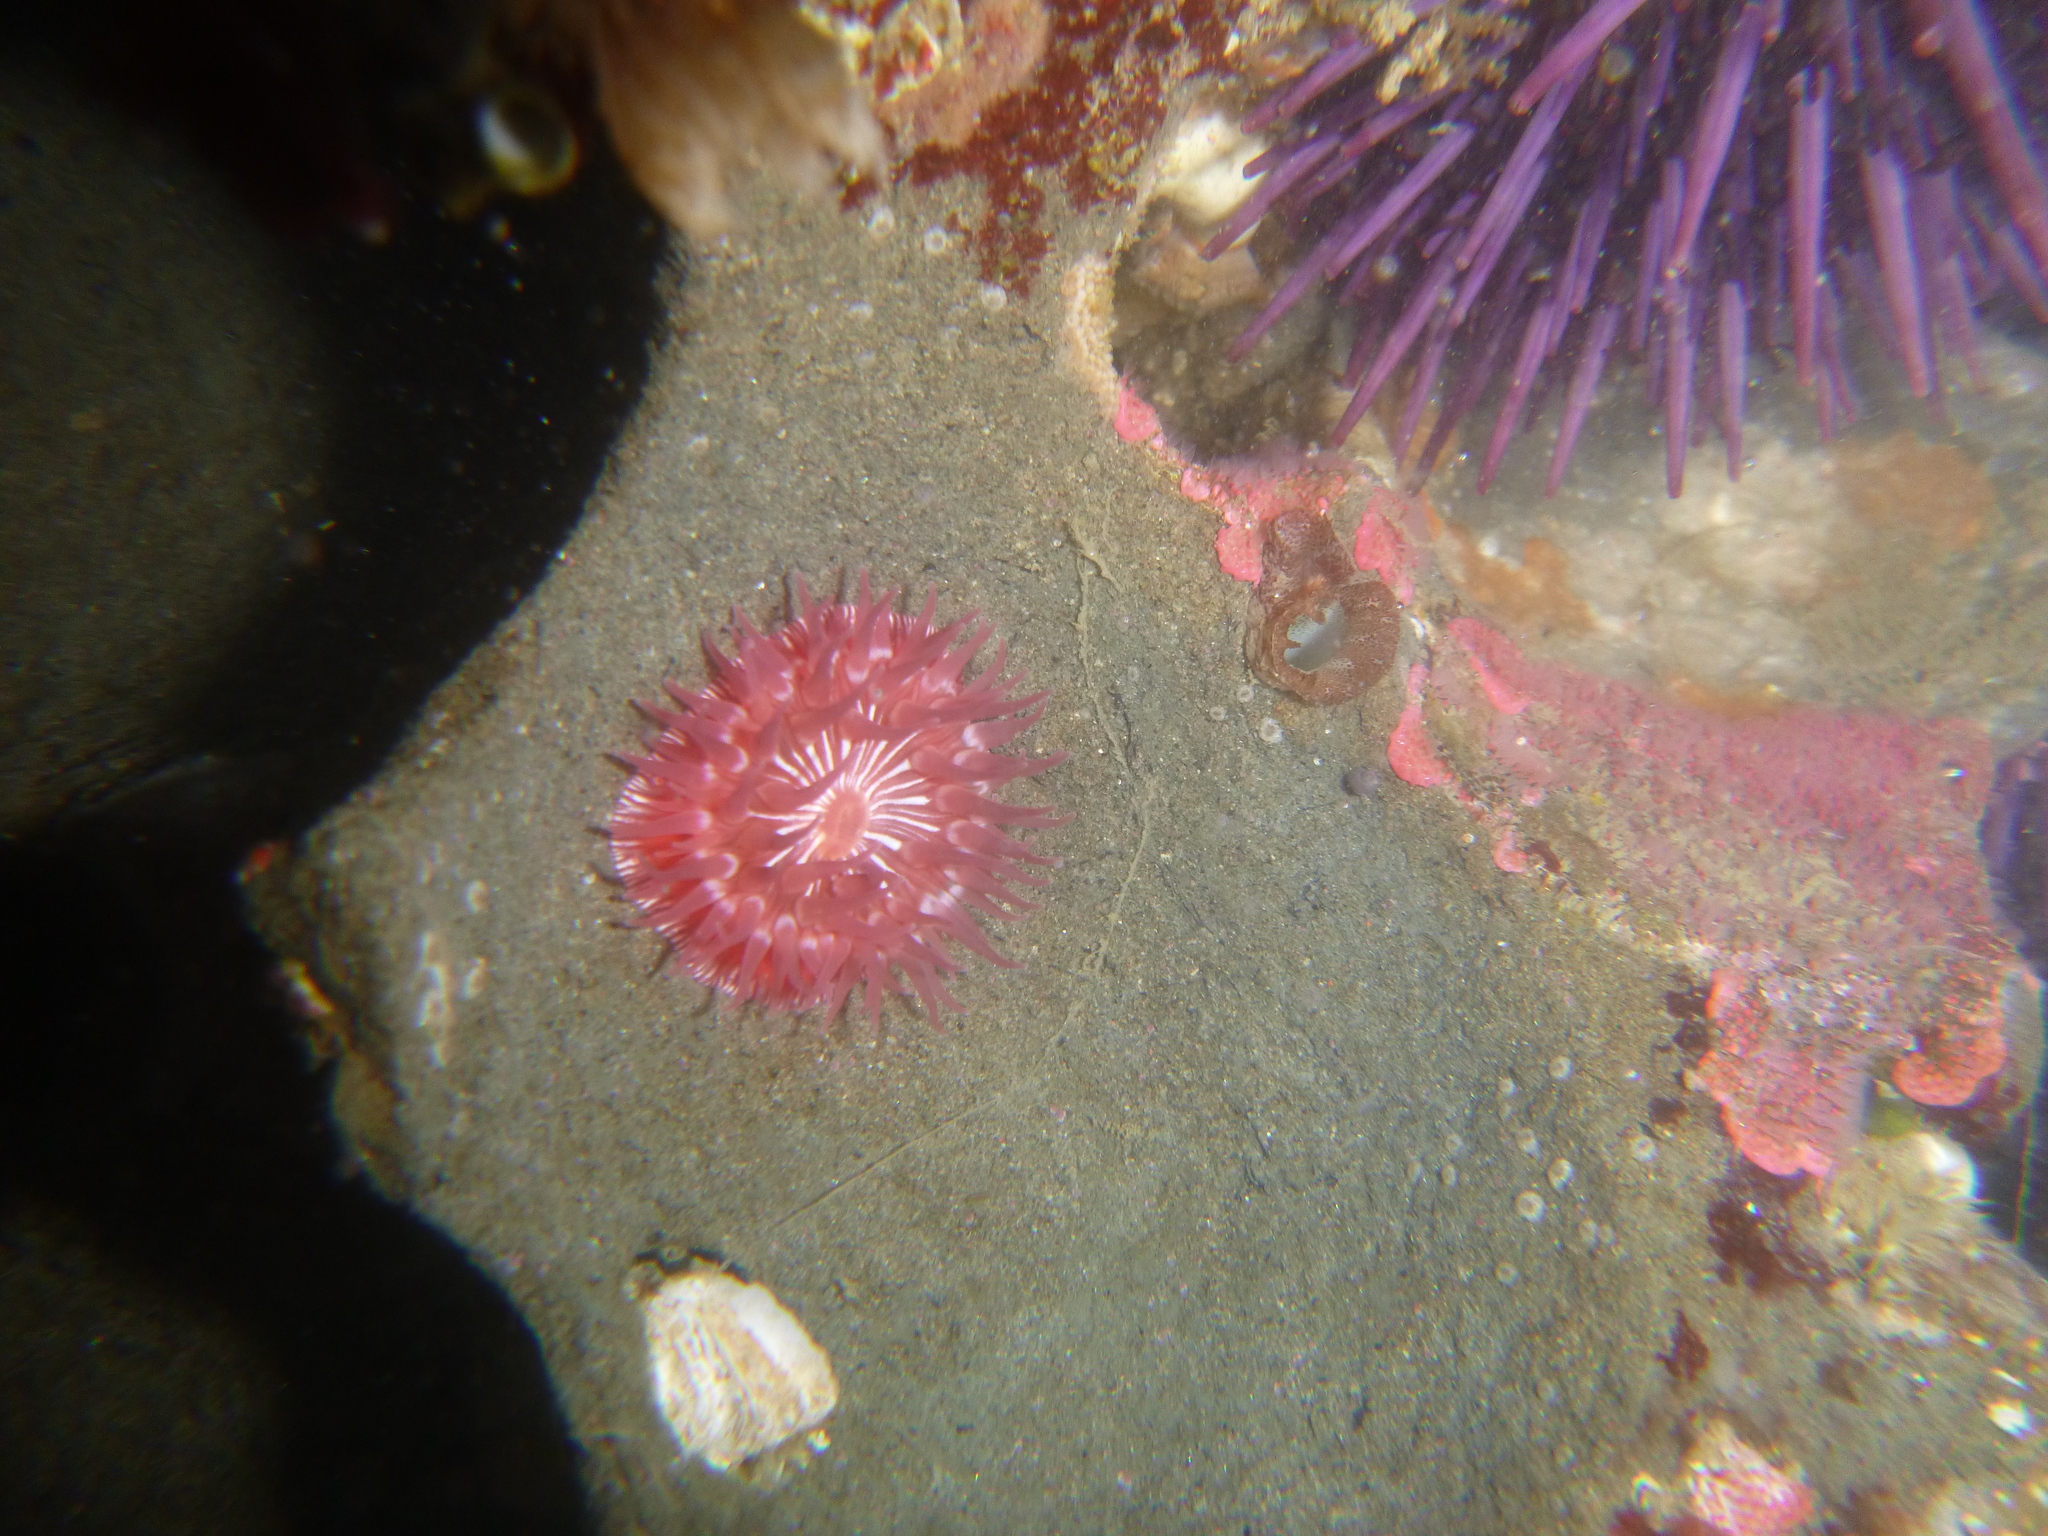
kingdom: Animalia
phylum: Cnidaria
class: Anthozoa
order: Actiniaria
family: Actiniidae
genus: Epiactis
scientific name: Epiactis prolifera
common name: Brooding anemone
